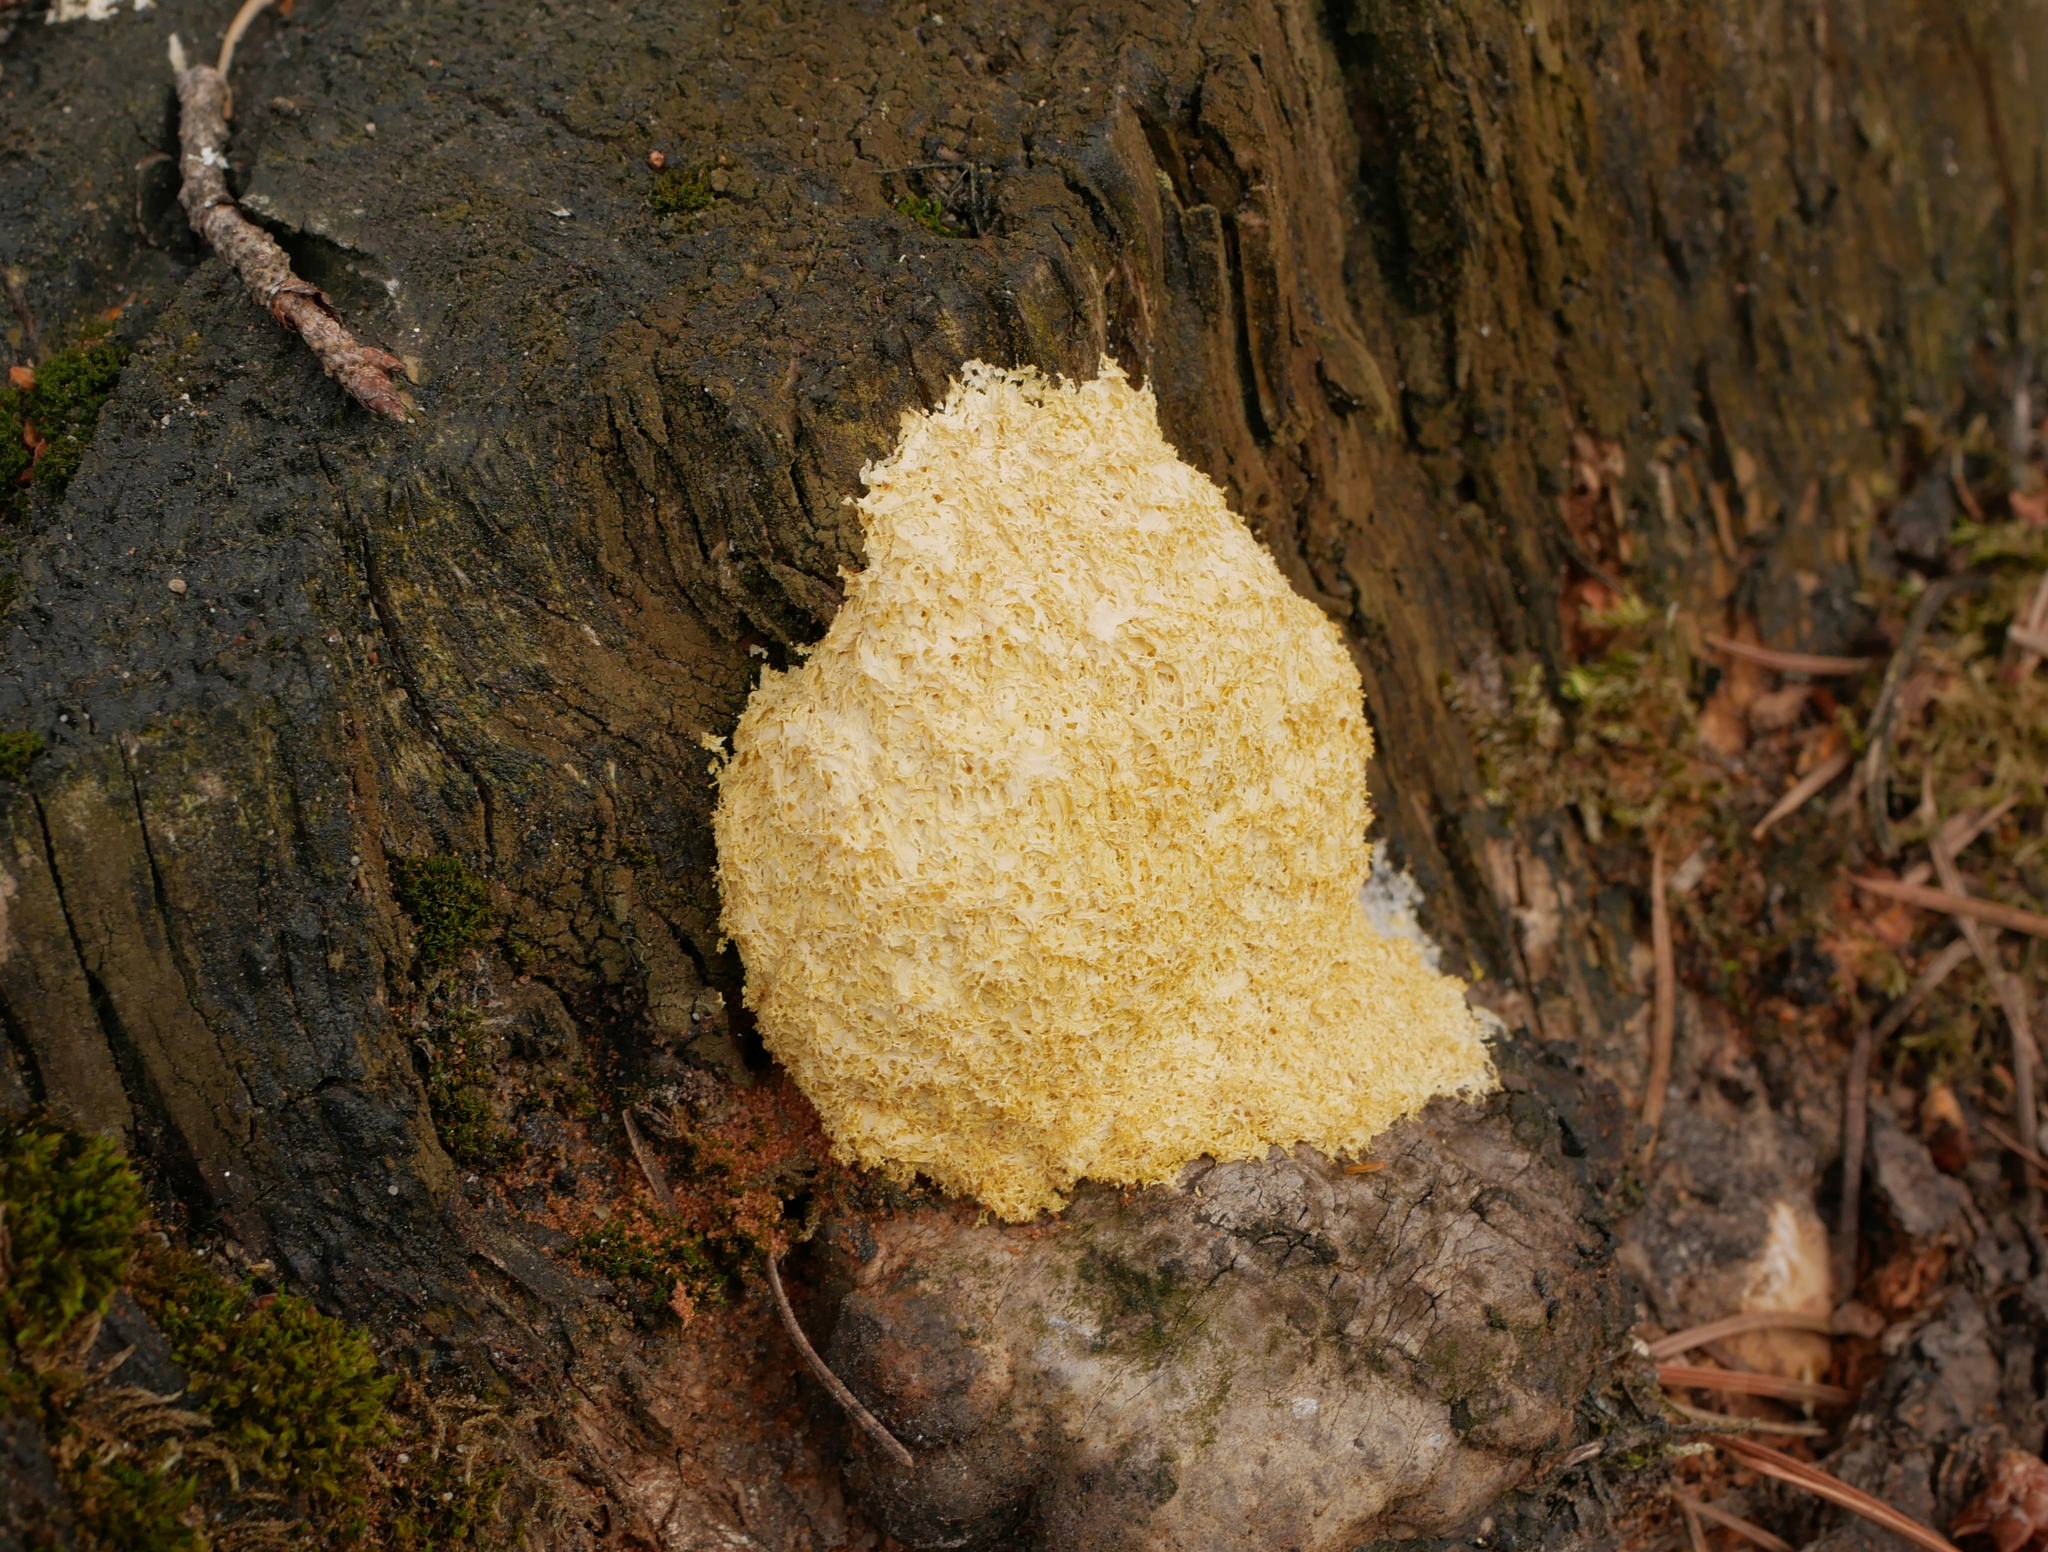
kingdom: Protozoa
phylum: Mycetozoa
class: Myxomycetes
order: Physarales
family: Physaraceae
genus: Fuligo
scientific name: Fuligo septica
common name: Dog vomit slime mold
